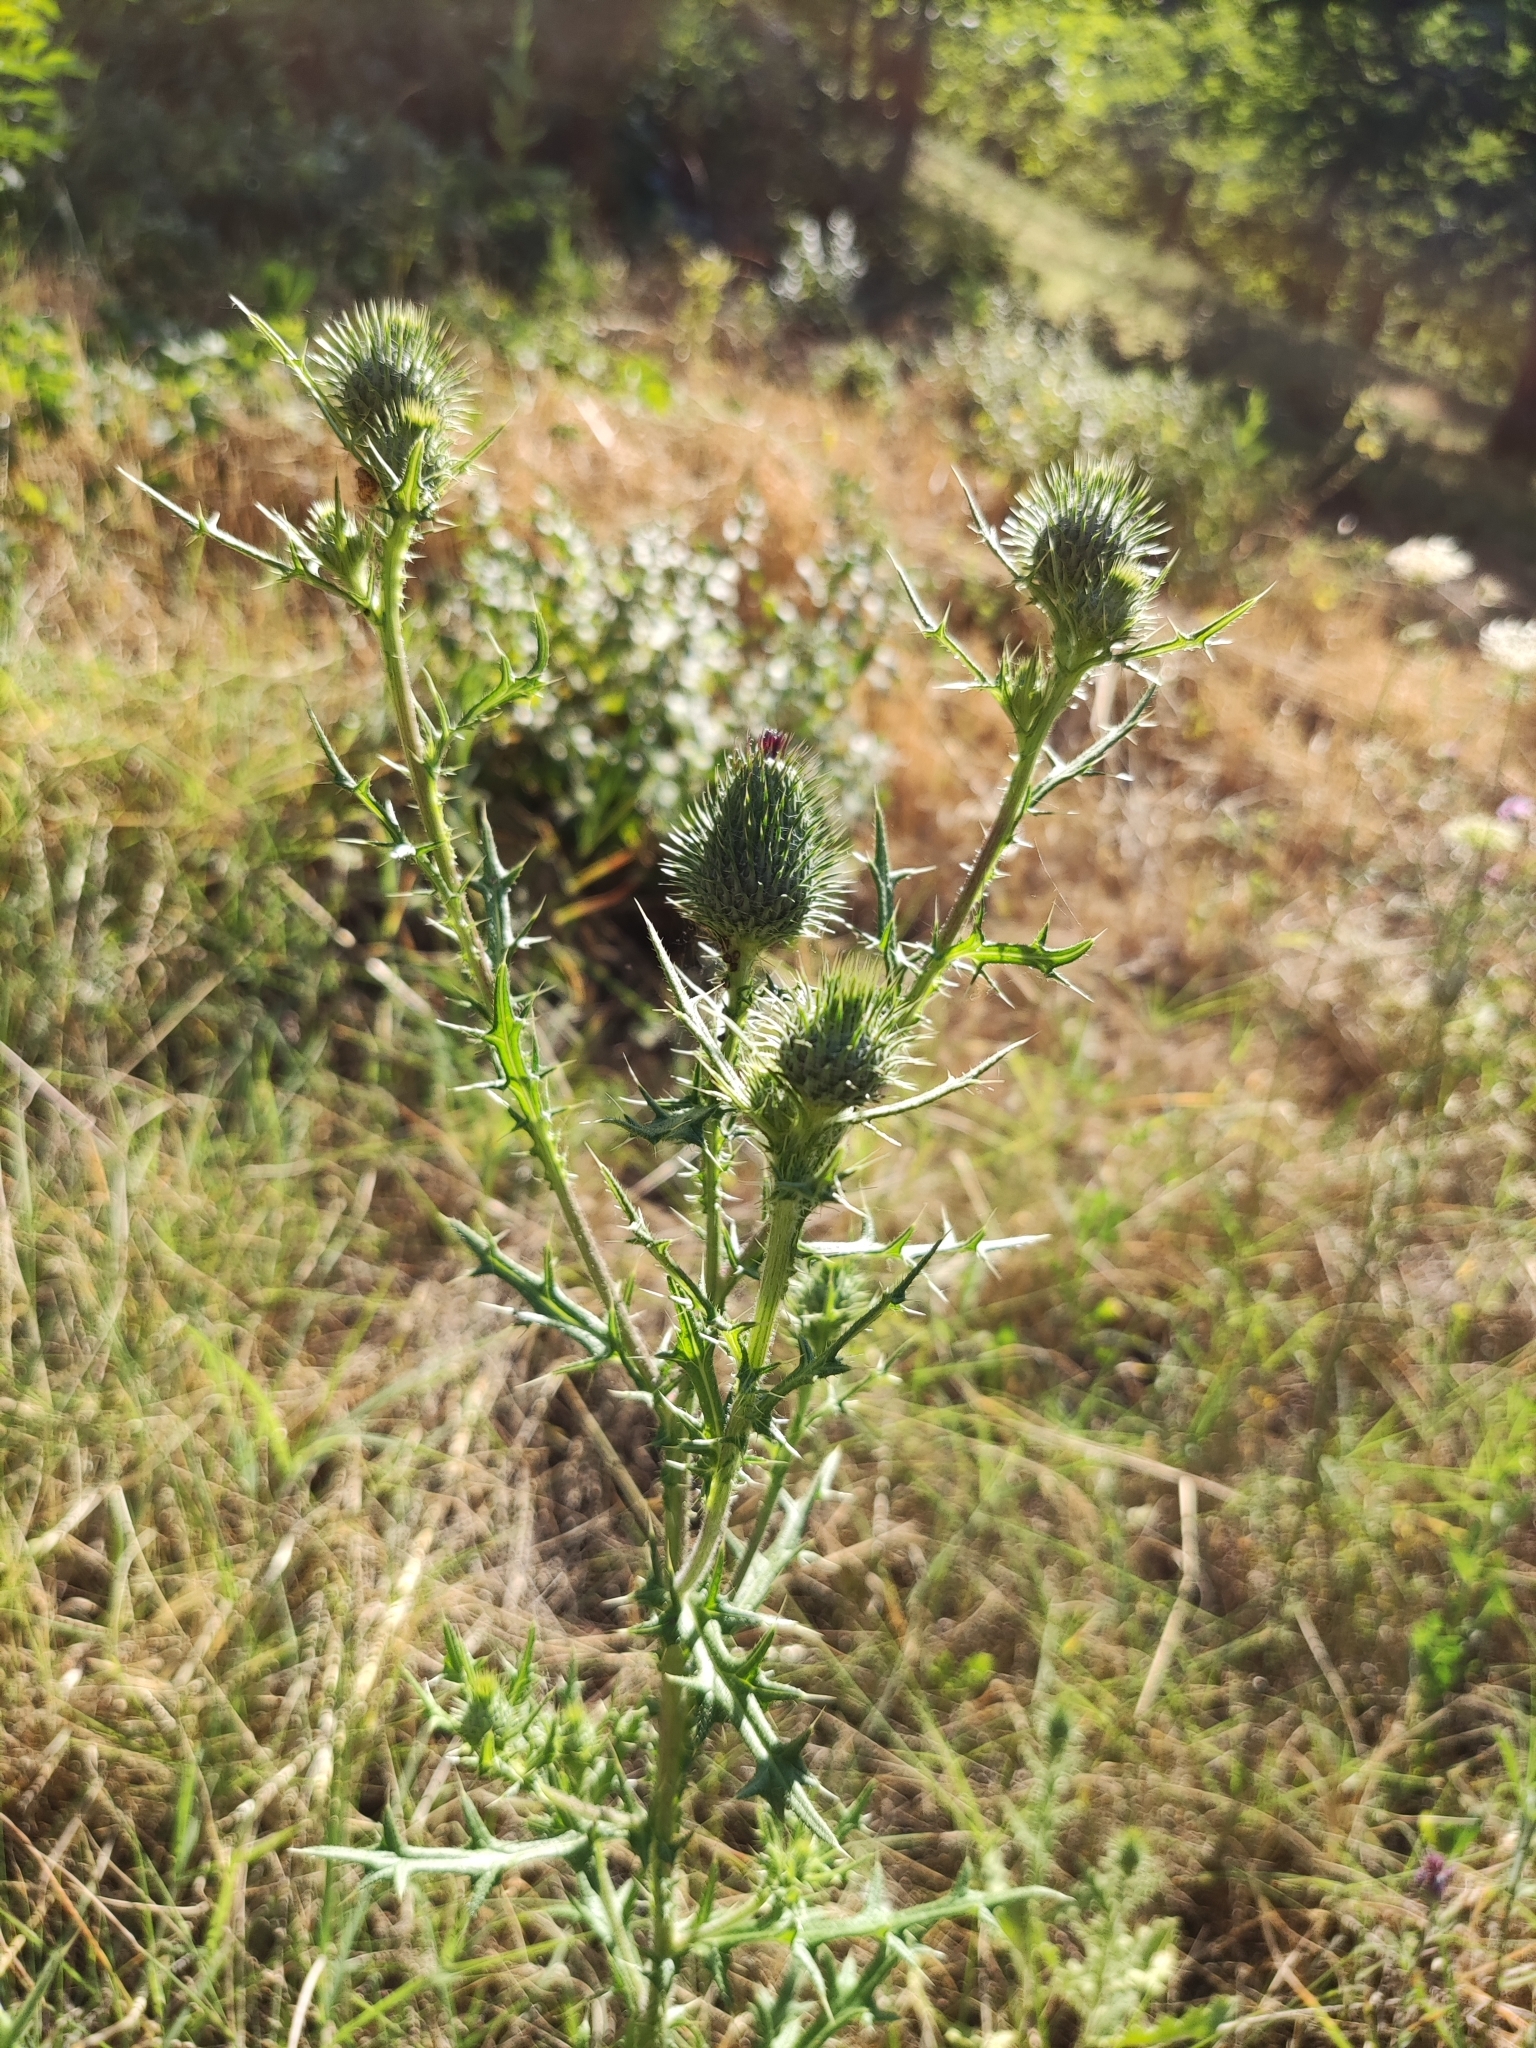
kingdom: Plantae
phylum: Tracheophyta
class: Magnoliopsida
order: Asterales
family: Asteraceae
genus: Cirsium
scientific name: Cirsium vulgare
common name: Bull thistle
